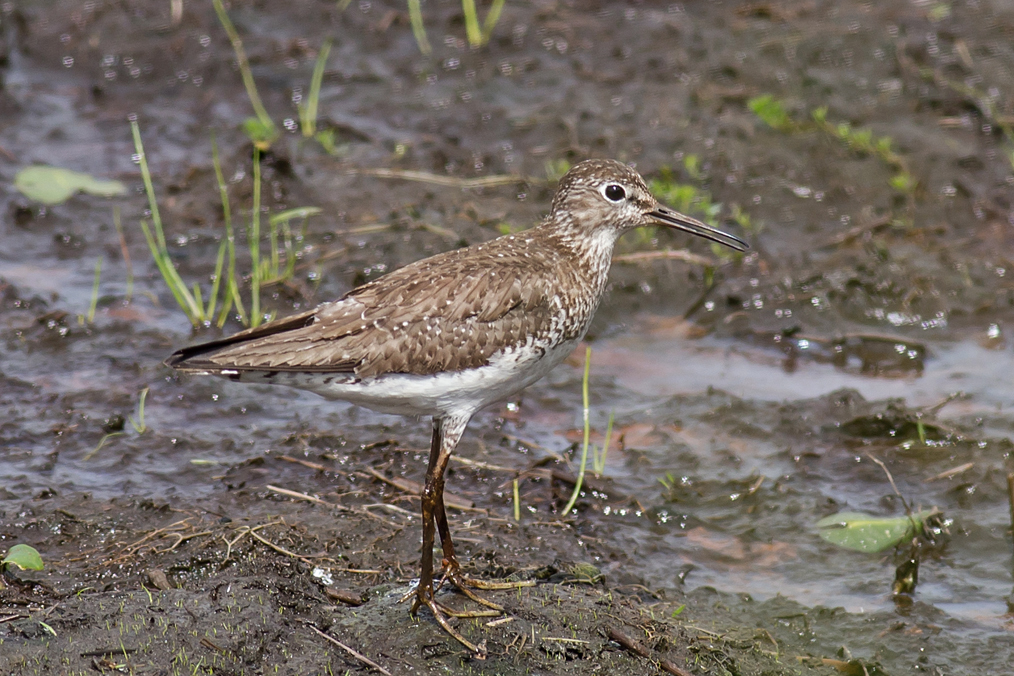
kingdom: Animalia
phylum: Chordata
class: Aves
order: Charadriiformes
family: Scolopacidae
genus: Tringa
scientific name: Tringa solitaria
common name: Solitary sandpiper
